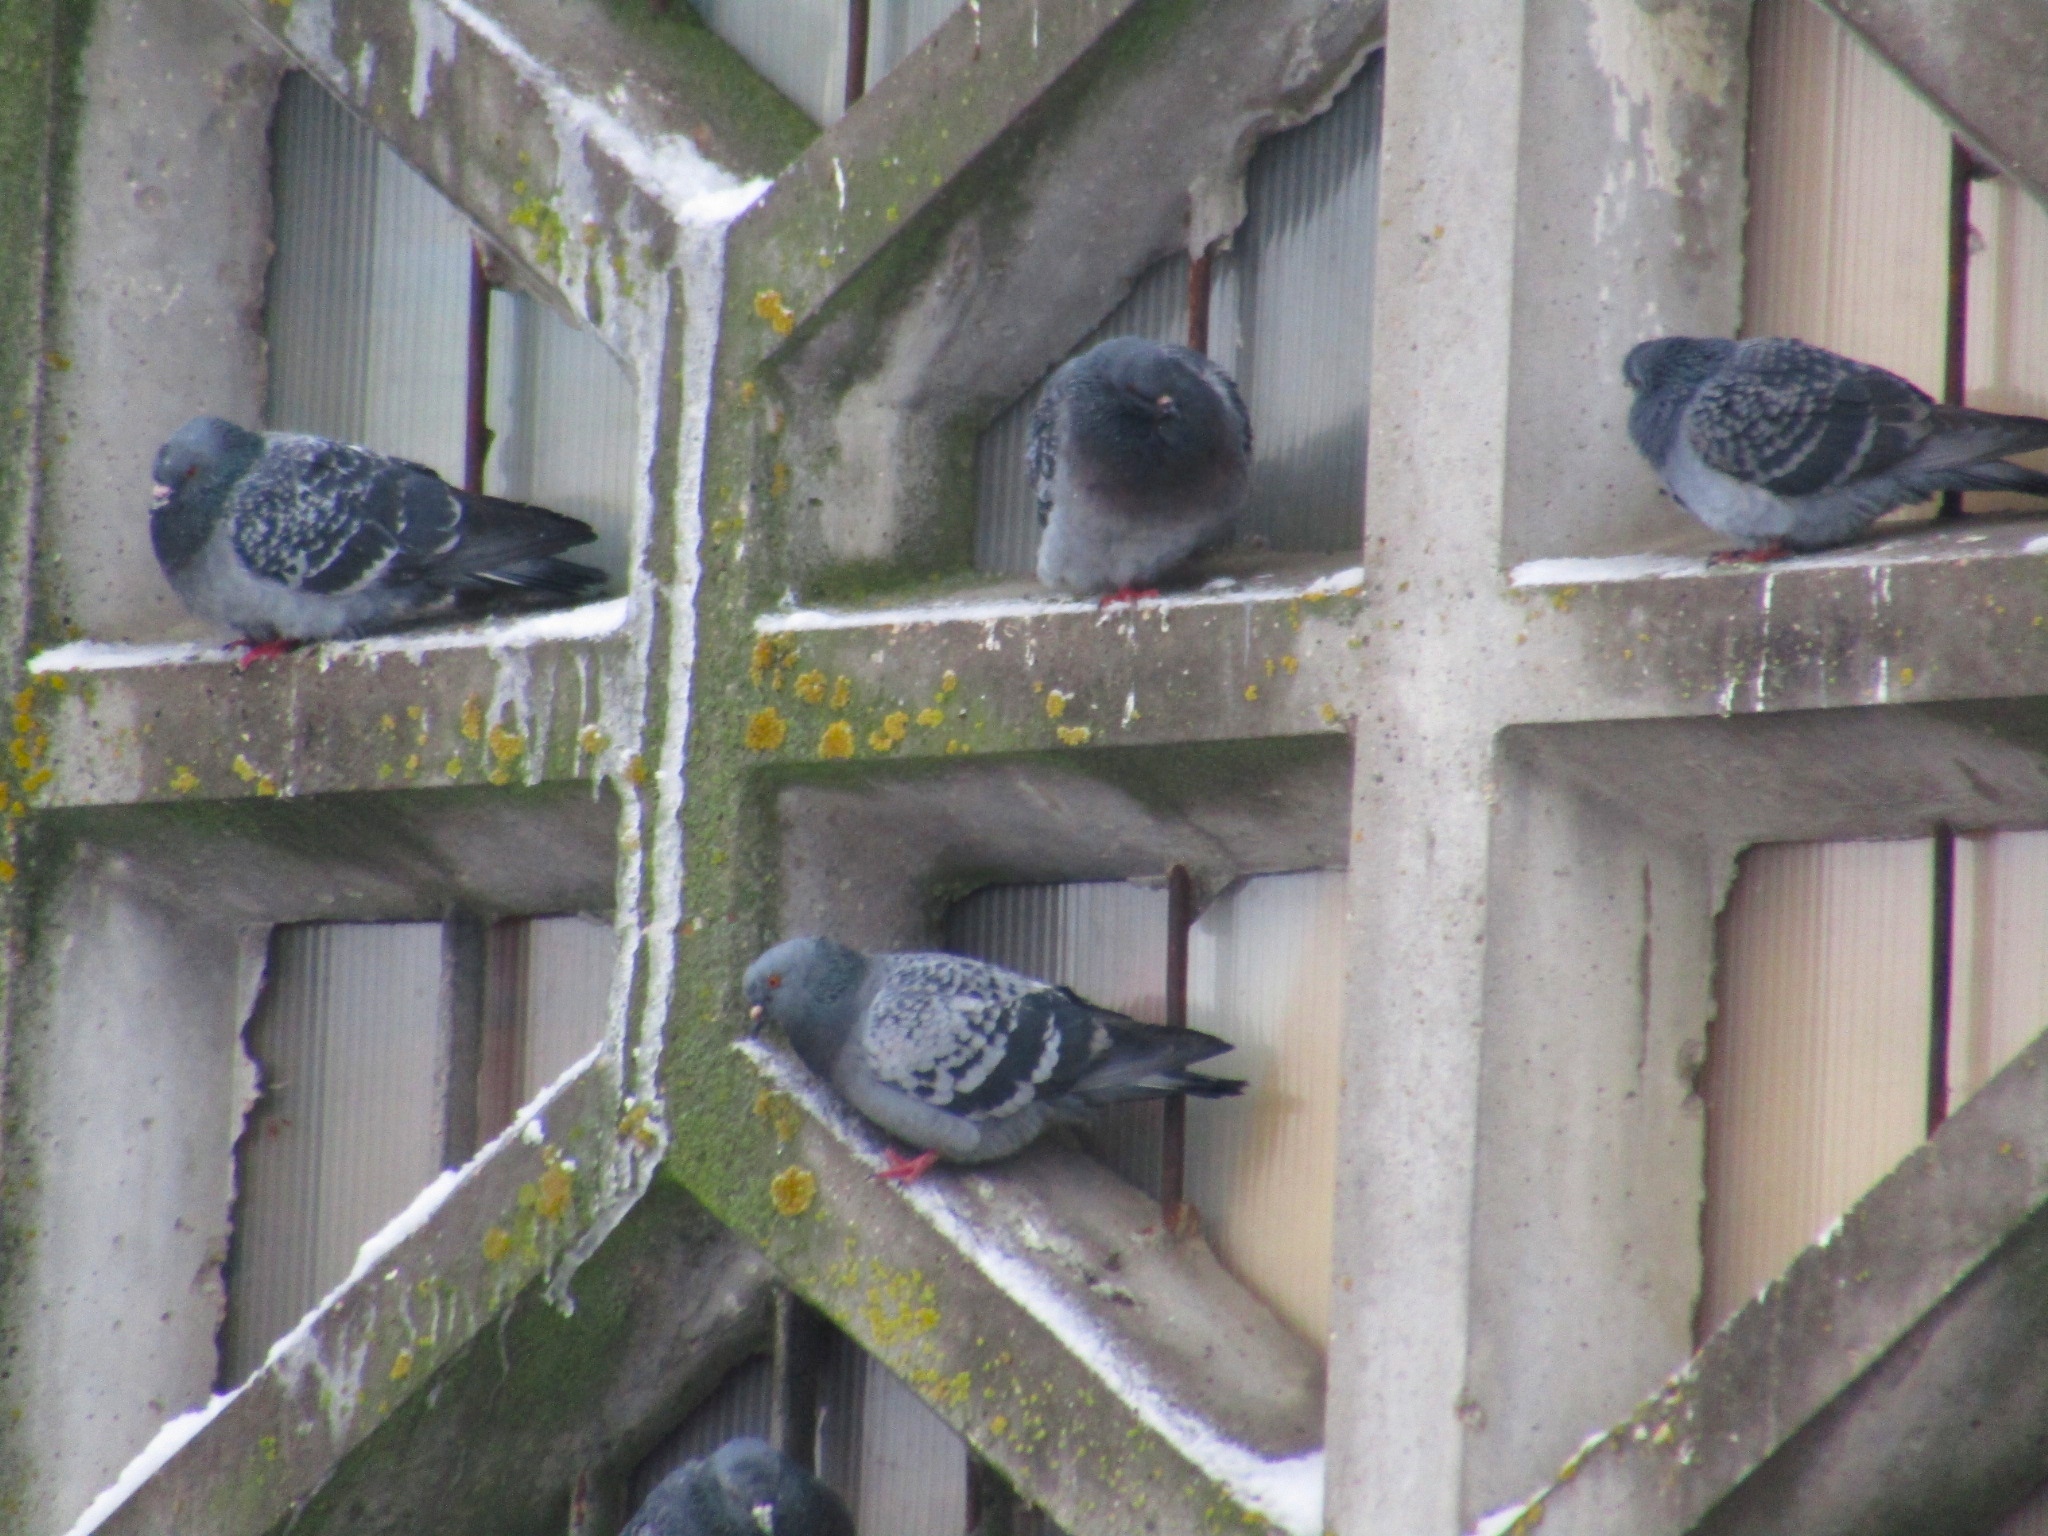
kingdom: Animalia
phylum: Chordata
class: Aves
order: Columbiformes
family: Columbidae
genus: Columba
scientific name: Columba livia
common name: Rock pigeon
